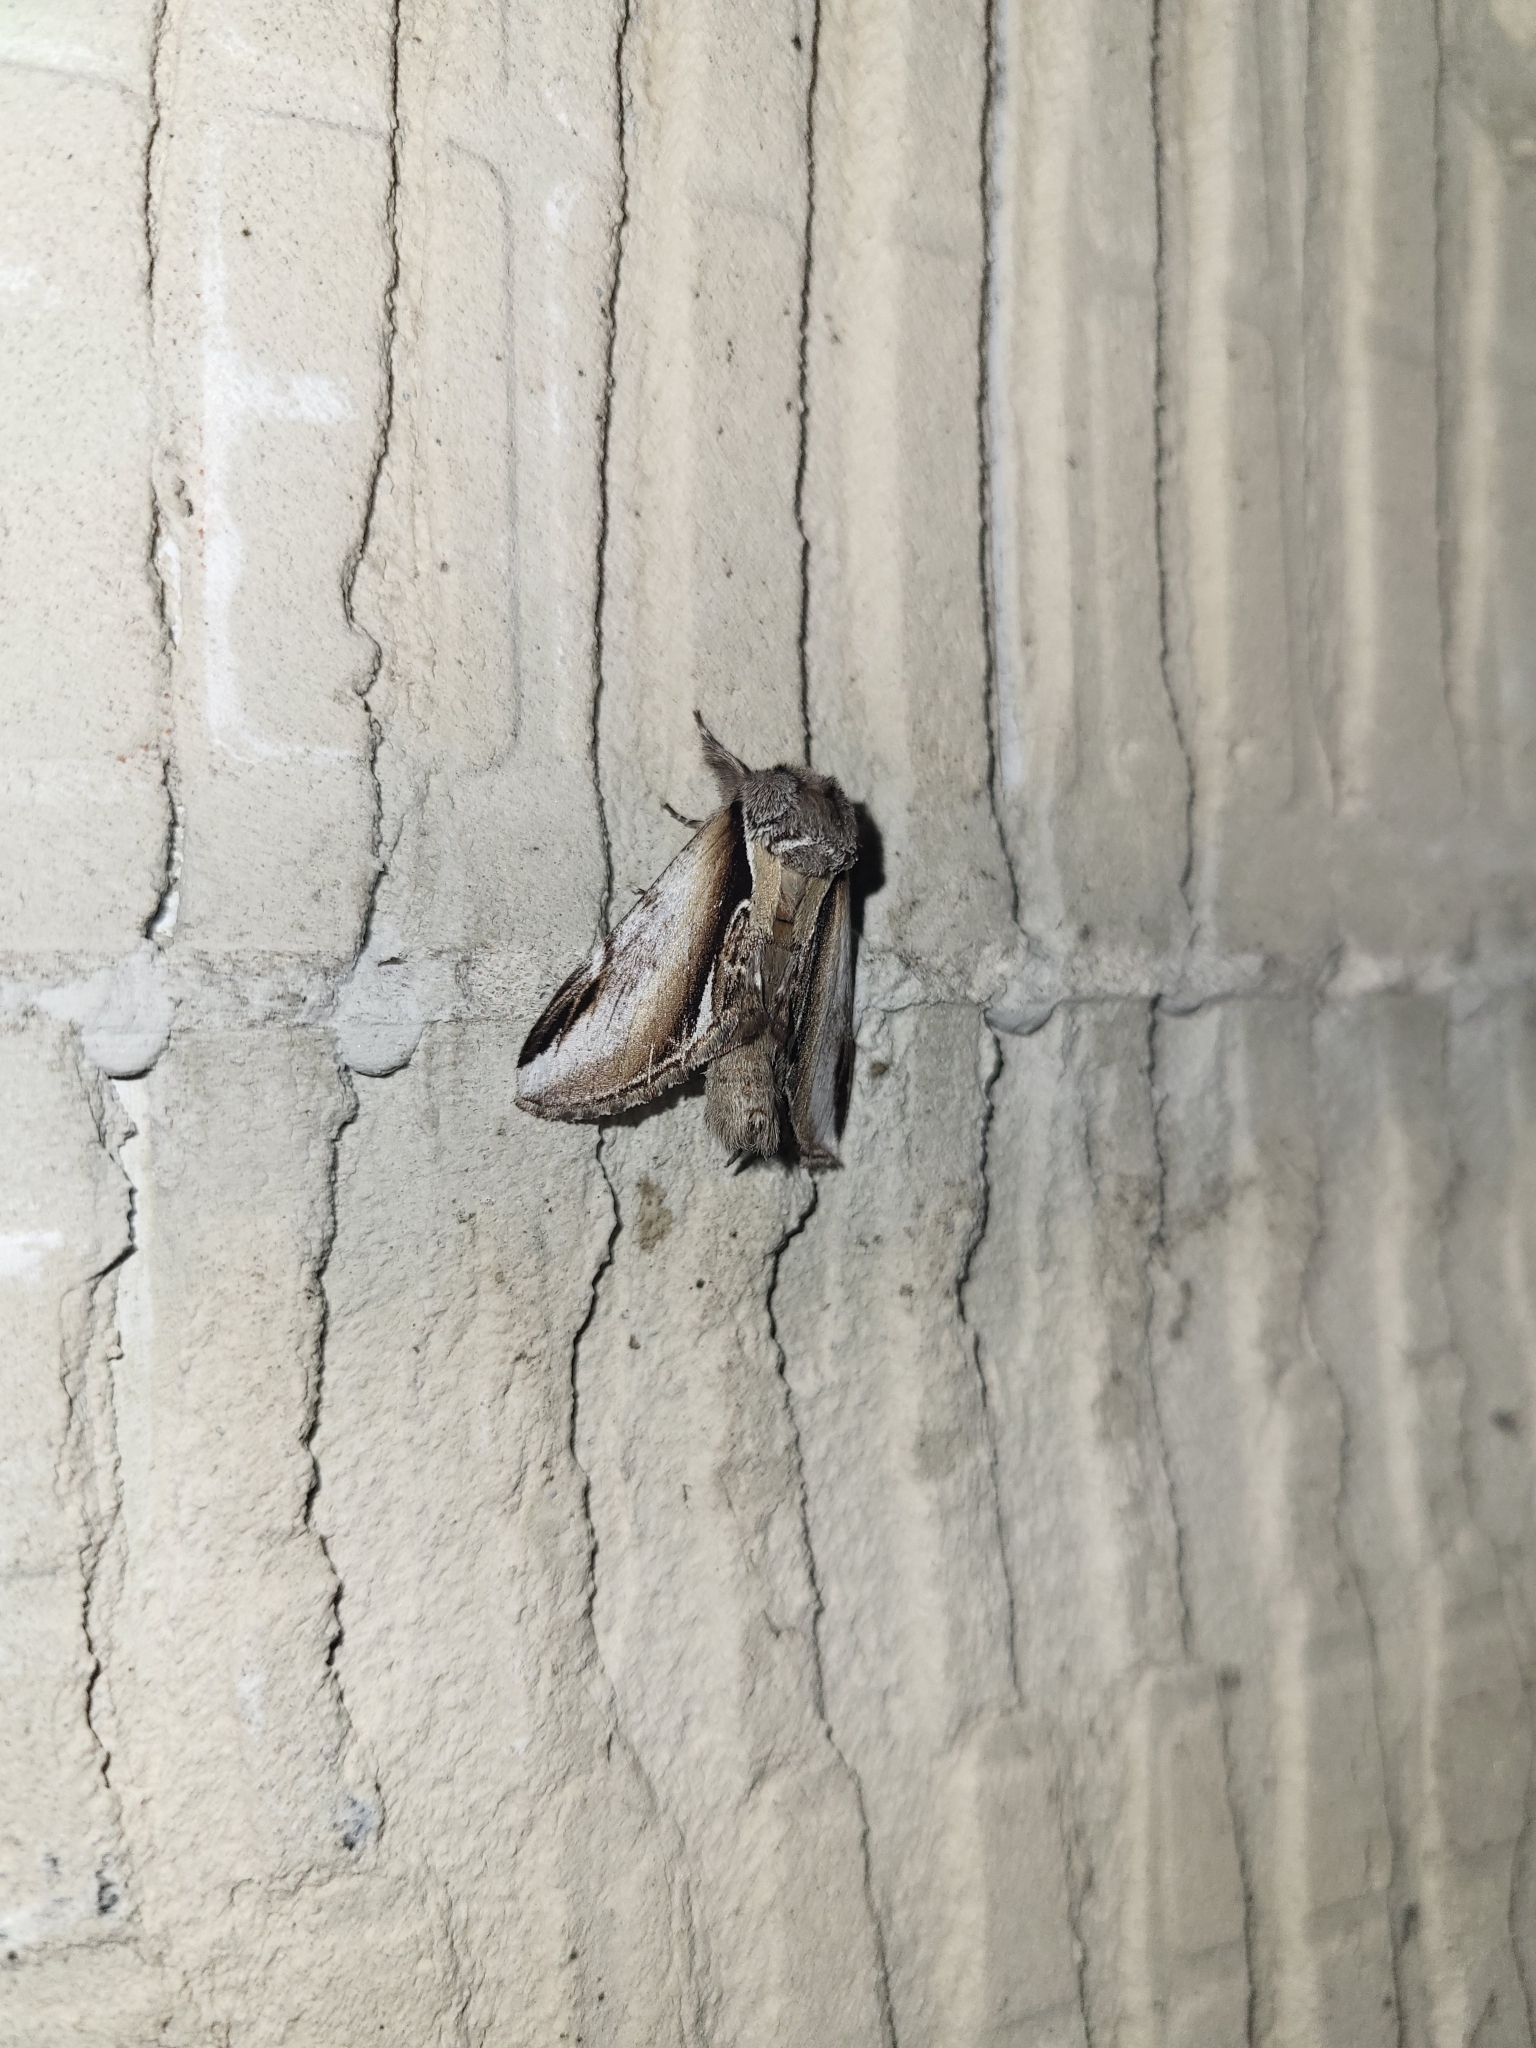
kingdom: Animalia
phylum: Arthropoda
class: Insecta
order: Lepidoptera
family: Notodontidae
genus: Pheosia
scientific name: Pheosia gnoma
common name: Lesser swallow prominent
